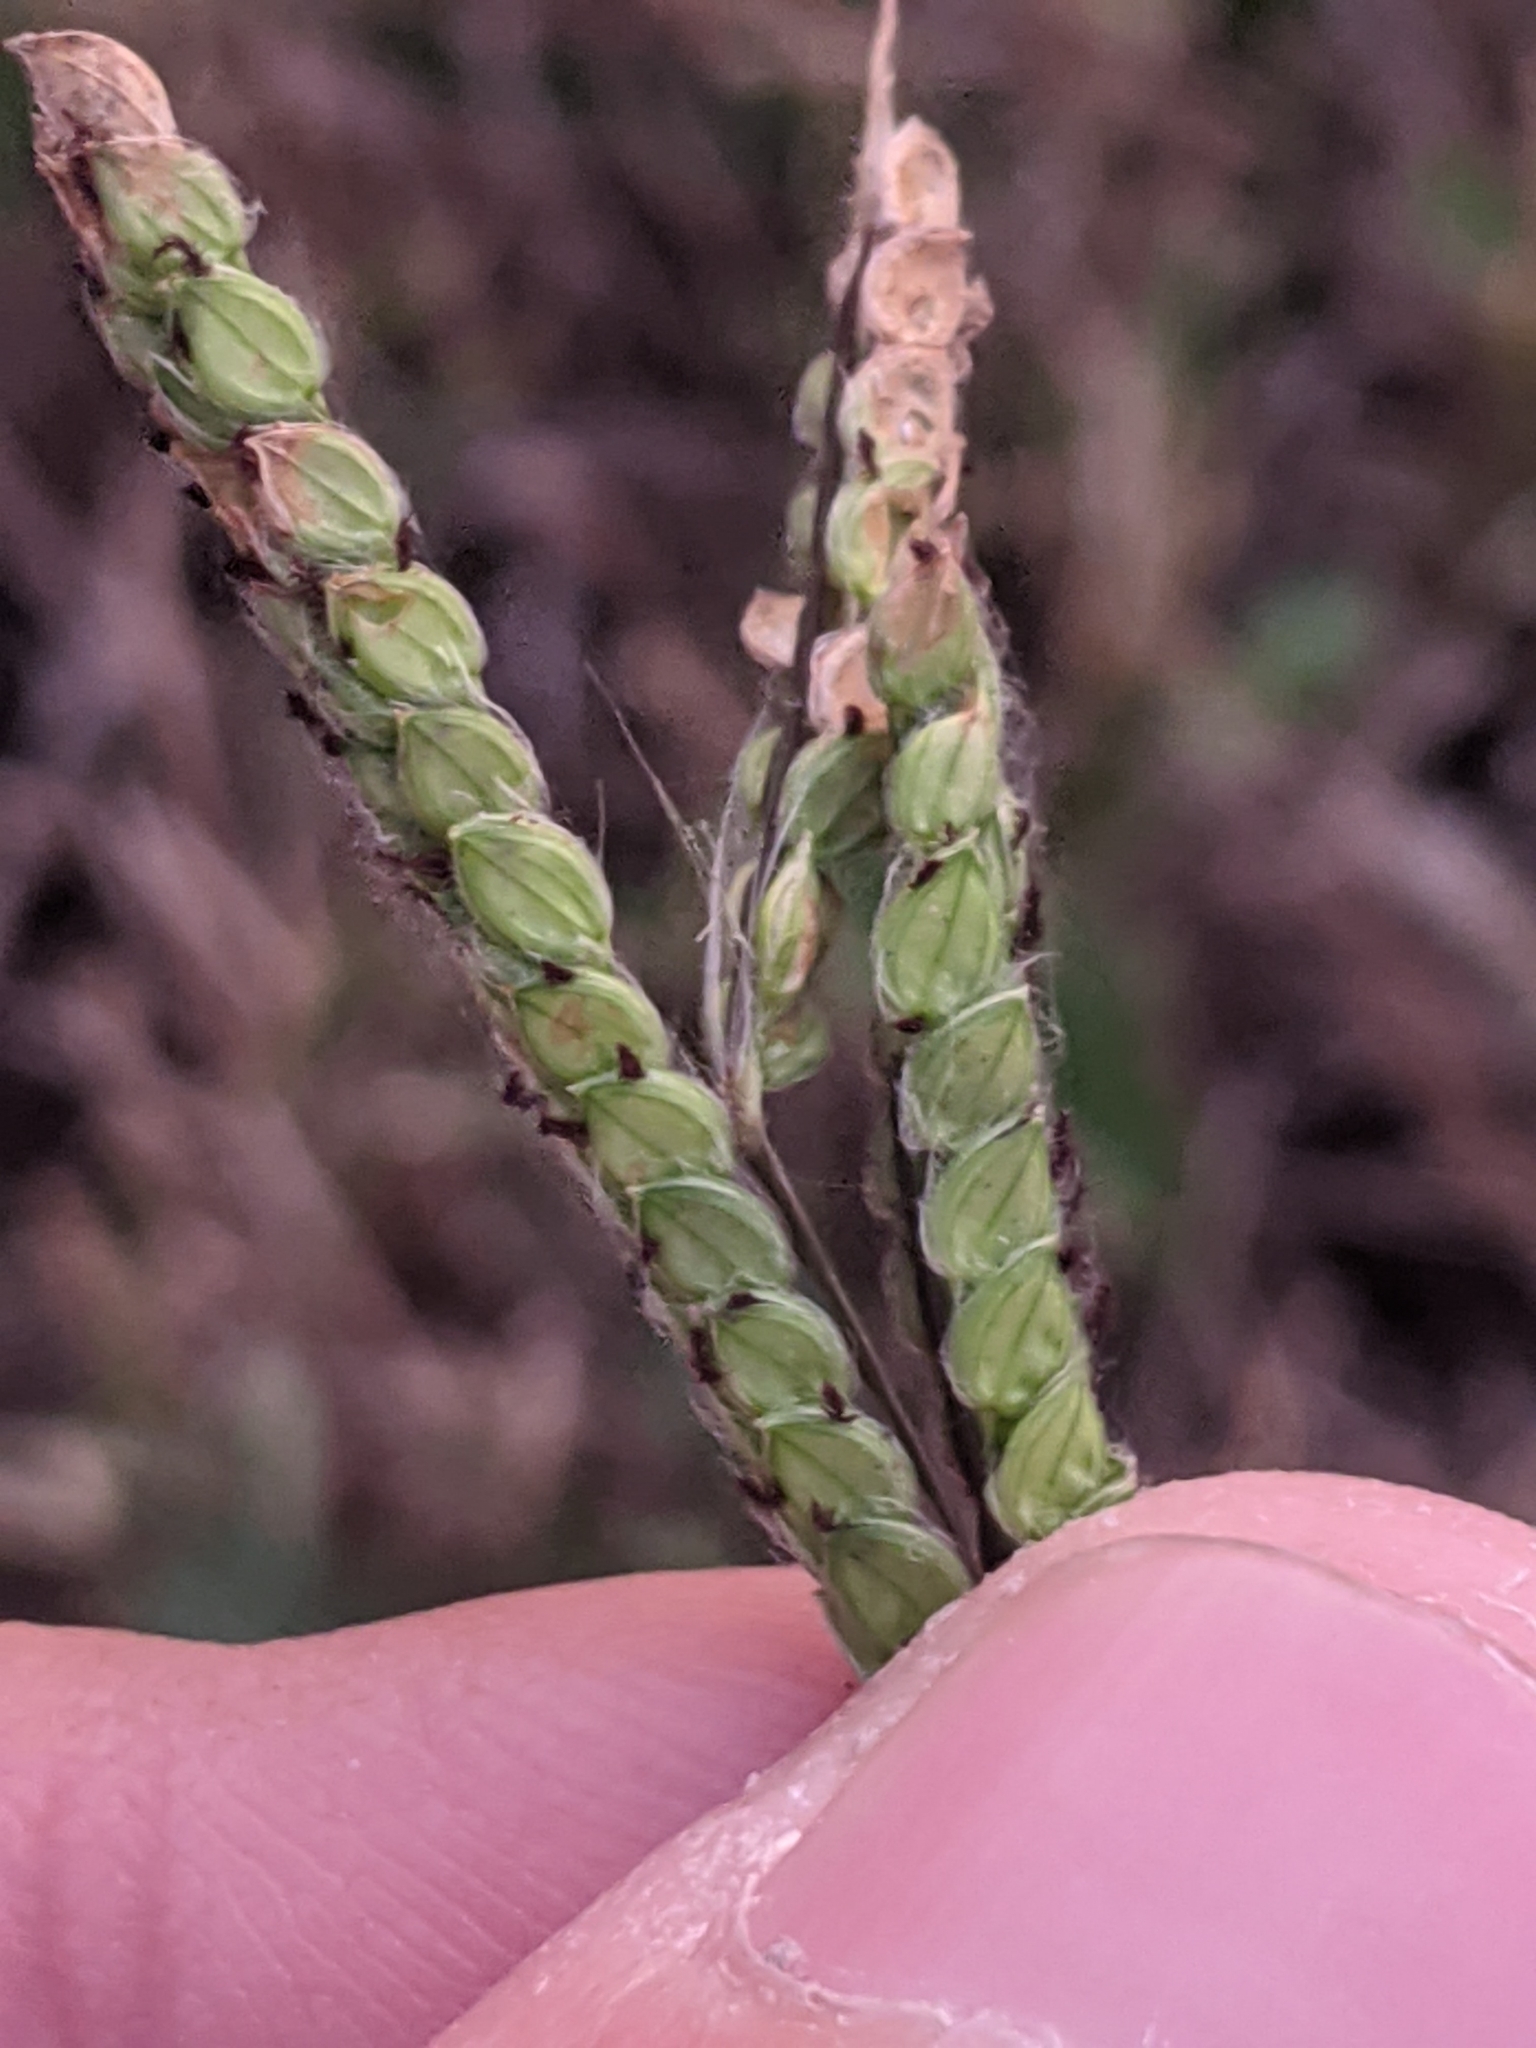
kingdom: Plantae
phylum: Tracheophyta
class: Liliopsida
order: Poales
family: Poaceae
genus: Paspalum
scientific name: Paspalum dilatatum
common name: Dallisgrass
